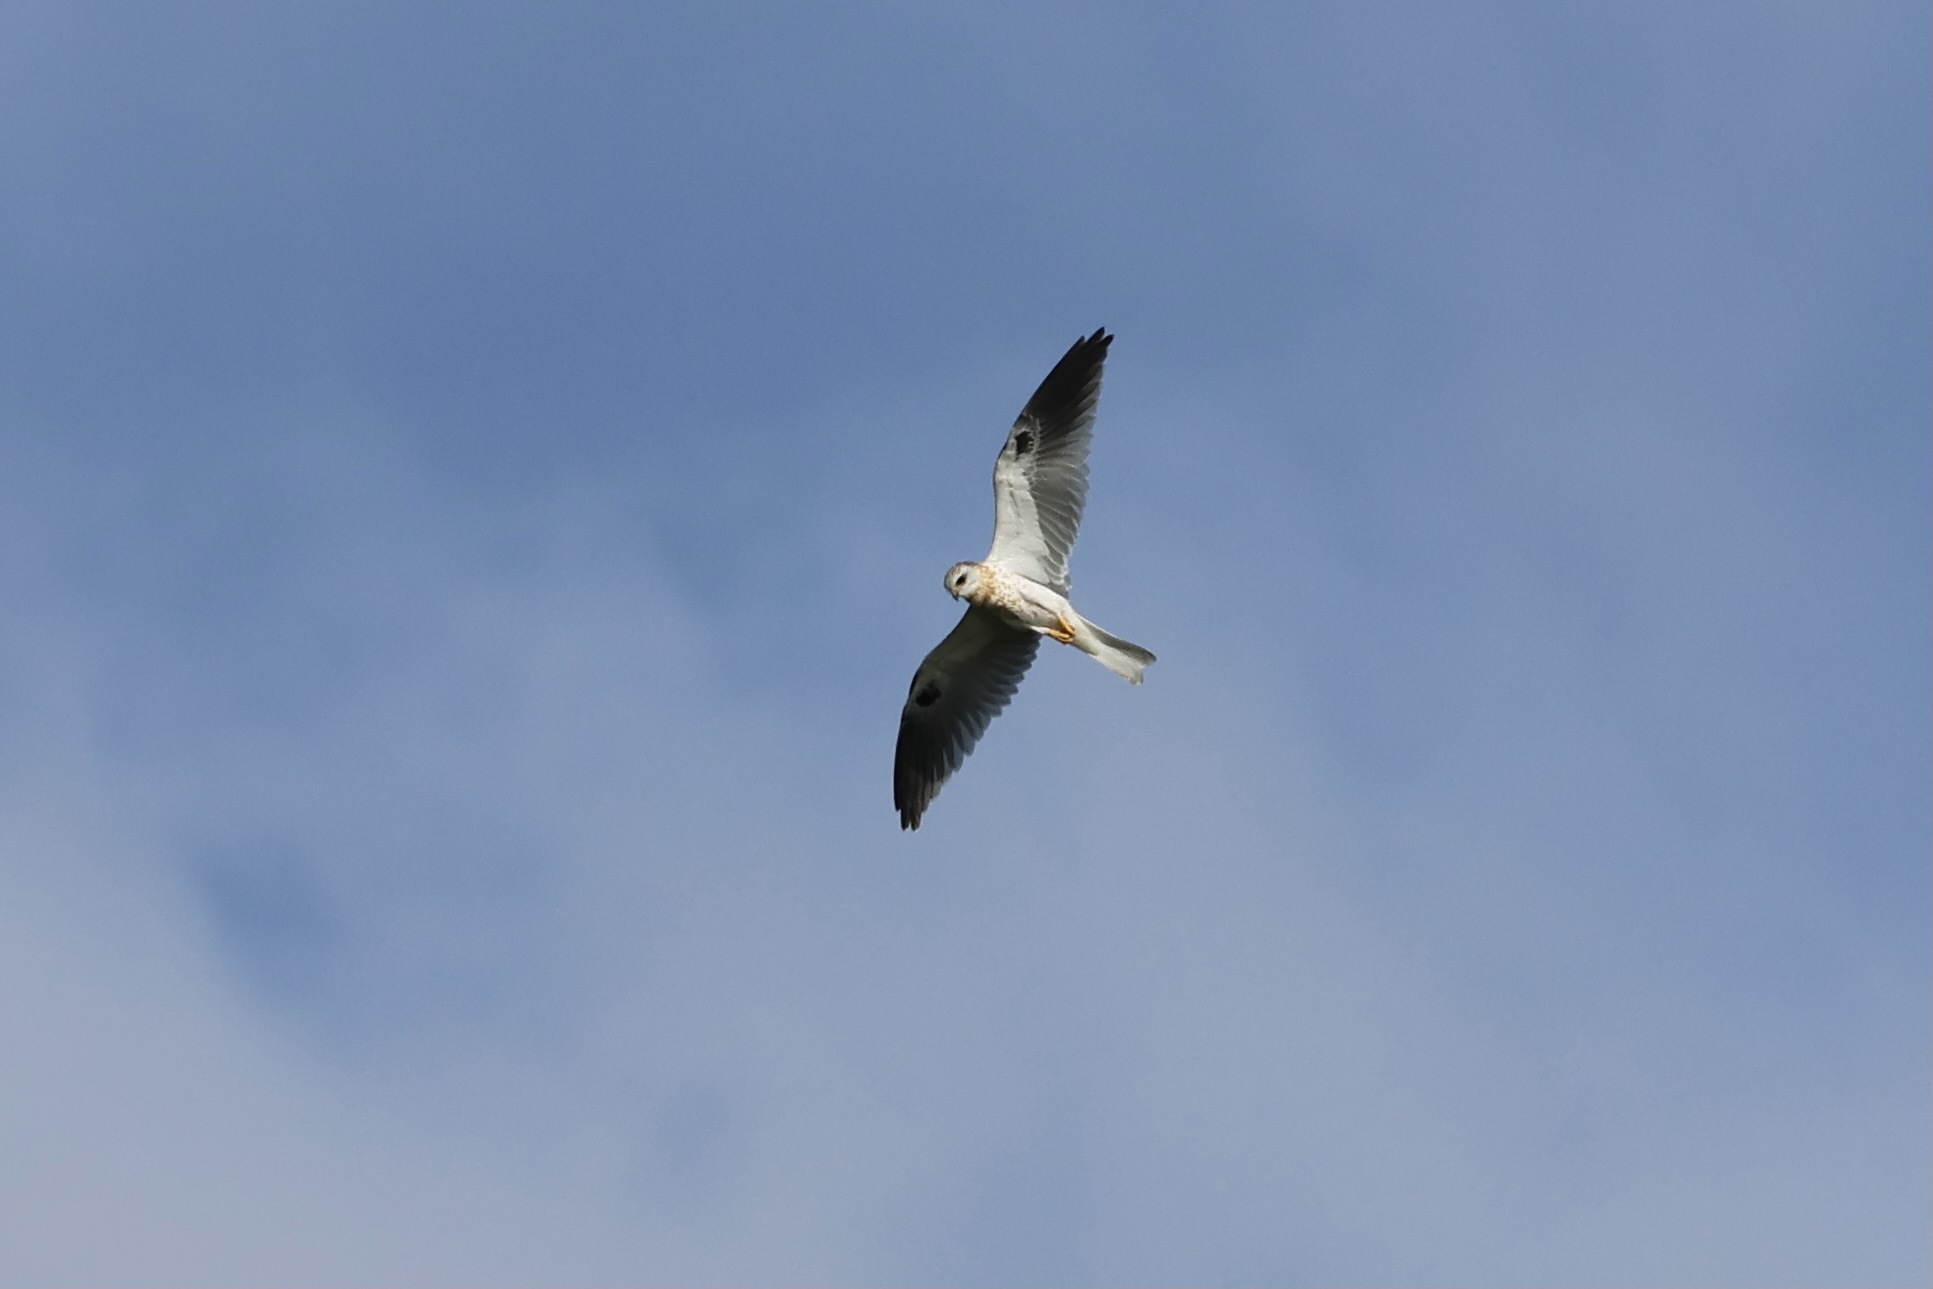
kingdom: Animalia
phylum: Chordata
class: Aves
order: Accipitriformes
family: Accipitridae
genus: Elanus
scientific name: Elanus leucurus
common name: White-tailed kite
